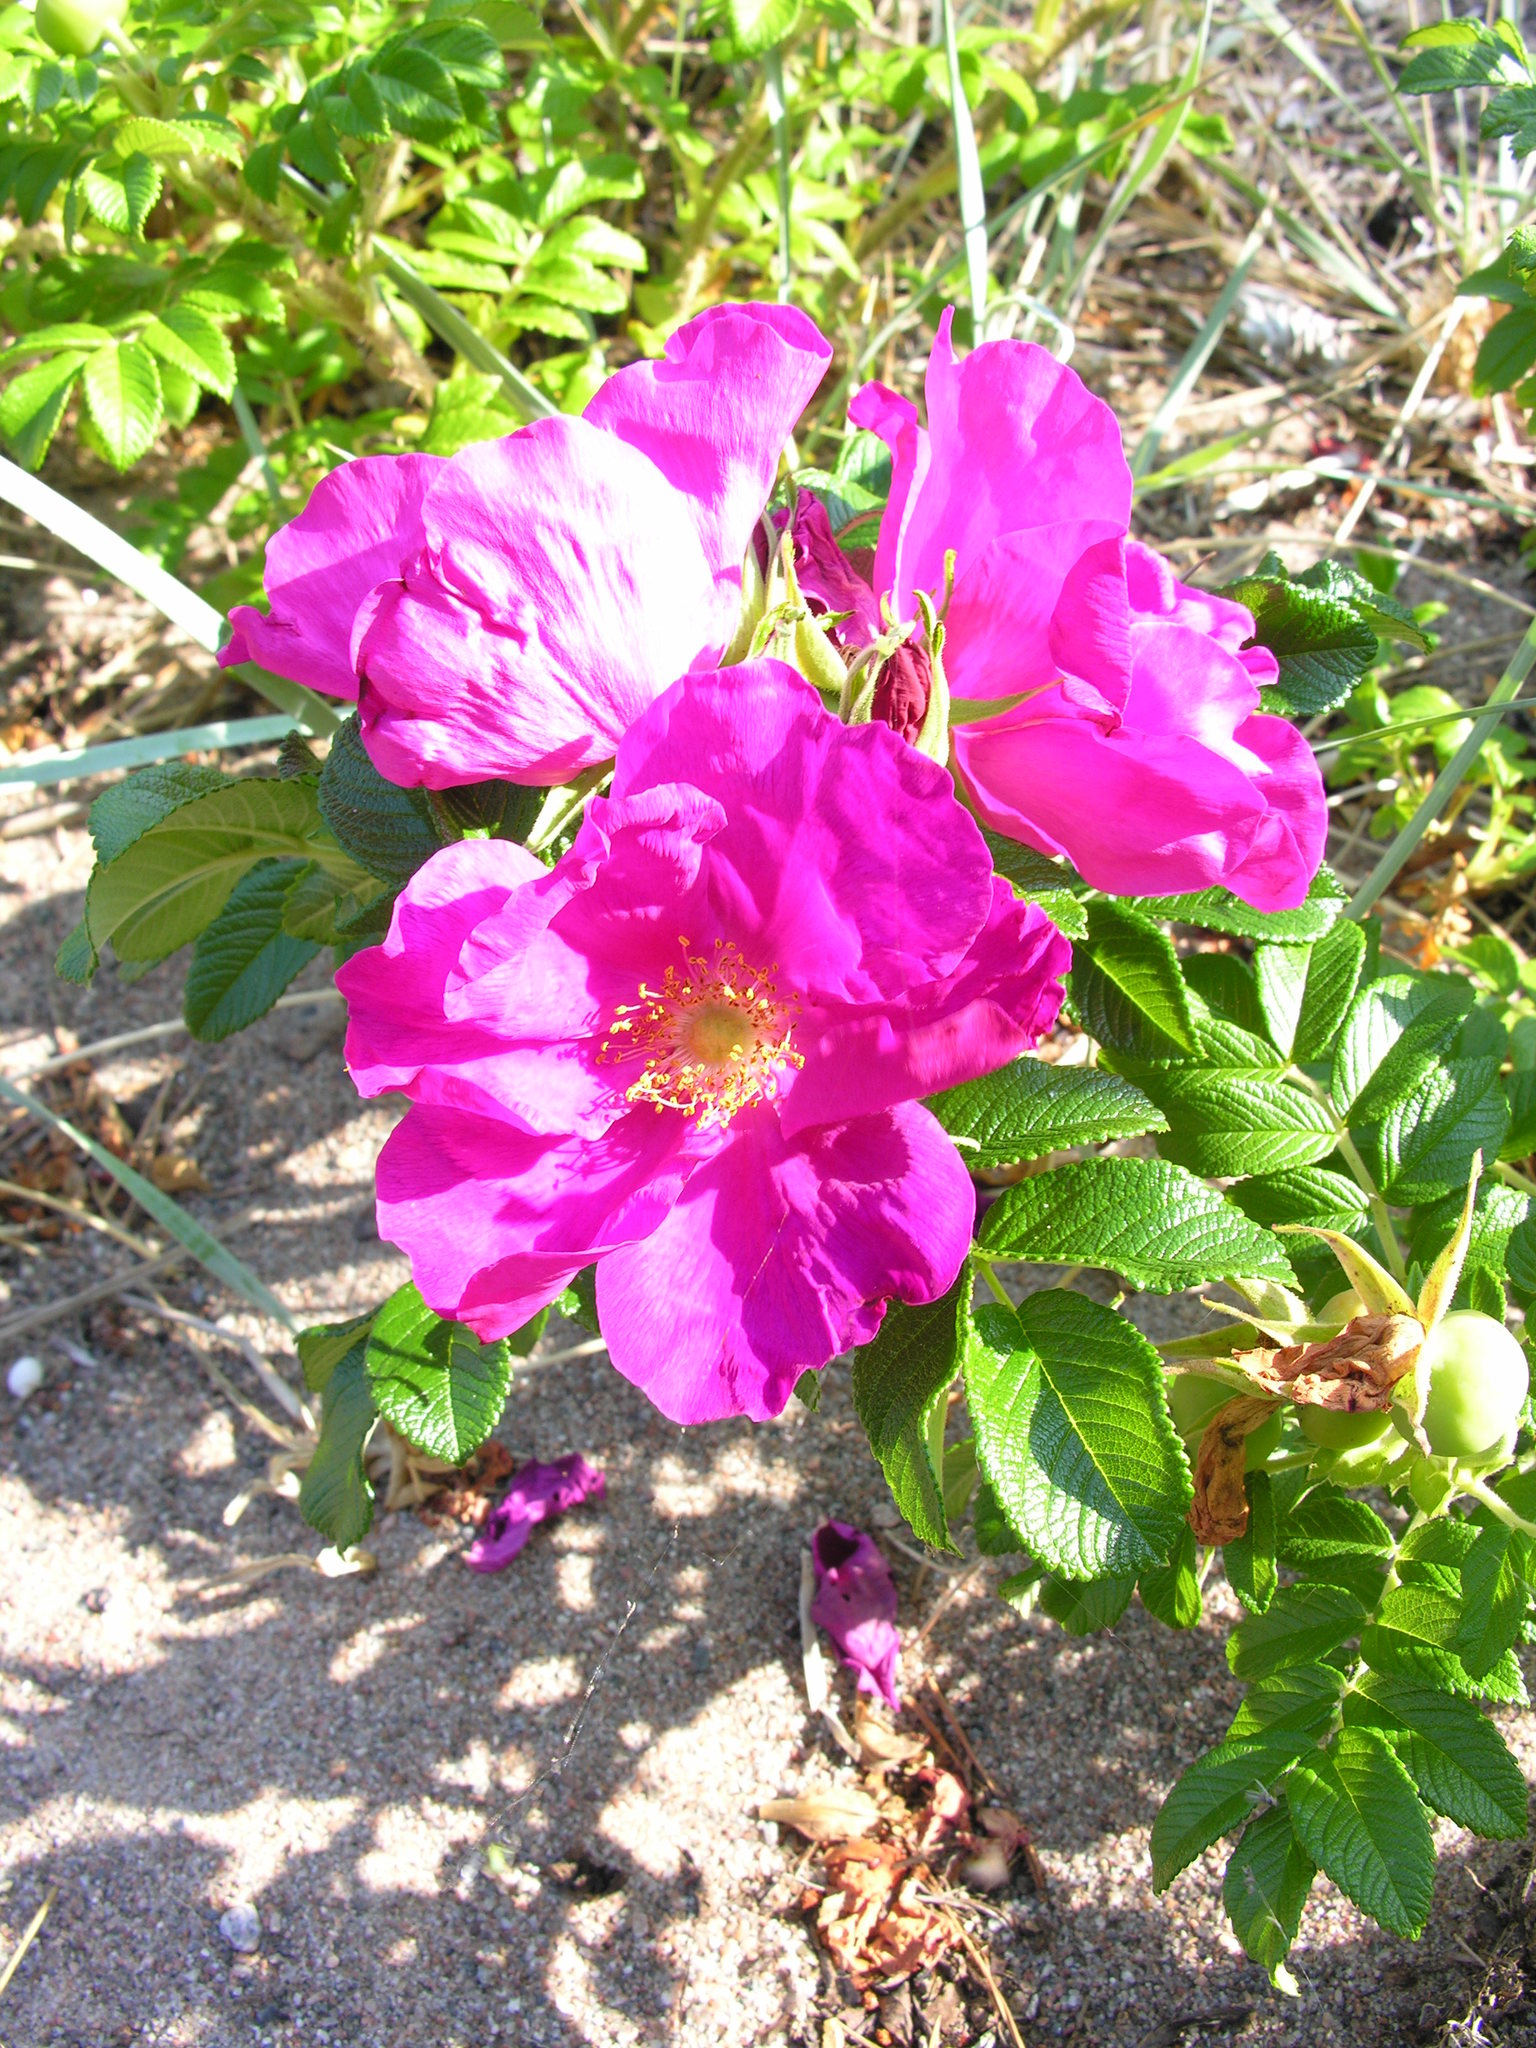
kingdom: Plantae
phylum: Tracheophyta
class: Magnoliopsida
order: Rosales
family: Rosaceae
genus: Rosa
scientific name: Rosa rugosa
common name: Japanese rose
